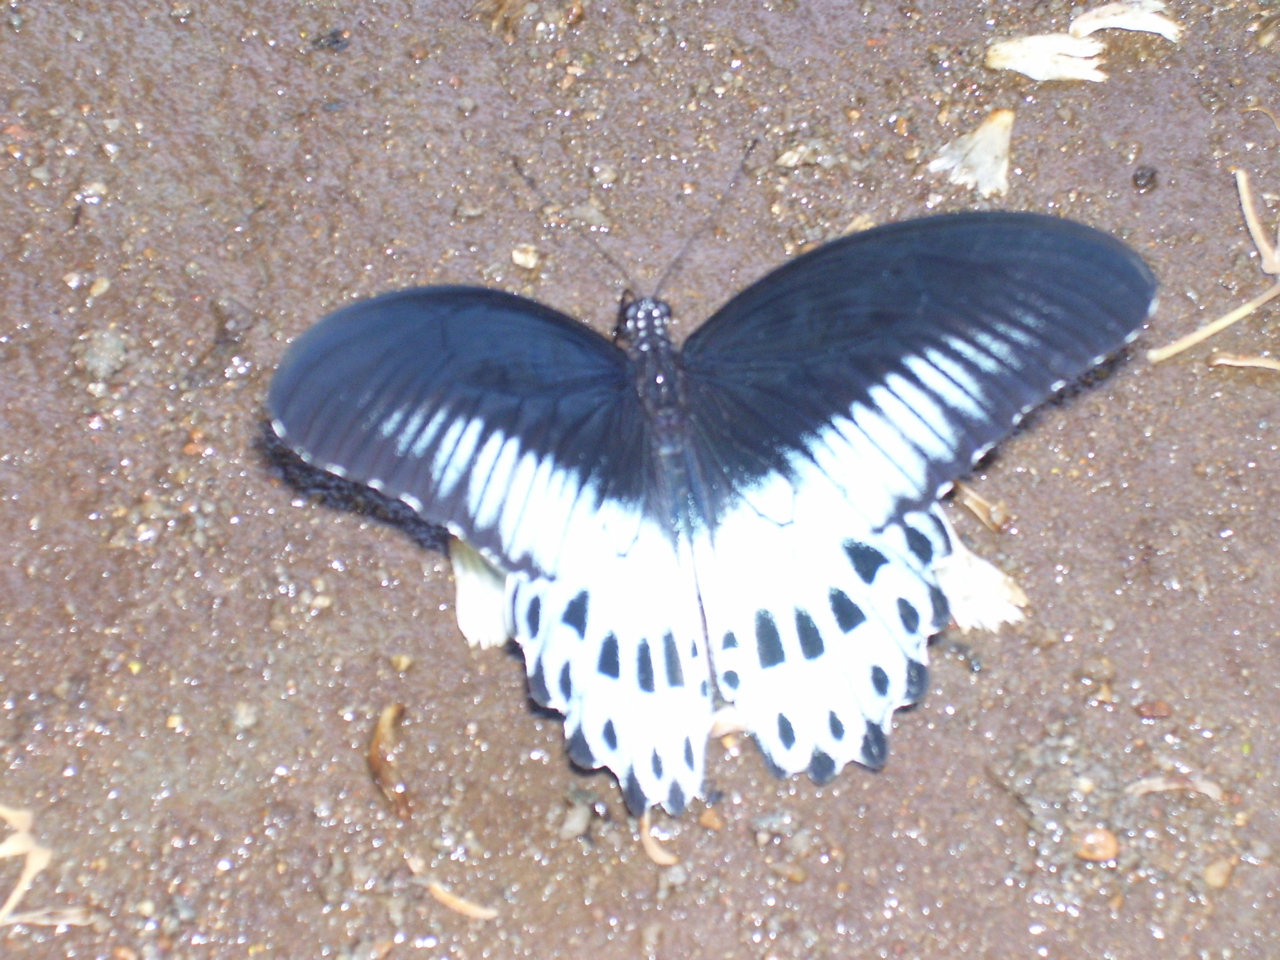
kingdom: Animalia
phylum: Arthropoda
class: Insecta
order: Lepidoptera
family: Papilionidae
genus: Papilio
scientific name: Papilio memnon
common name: Great mormon
